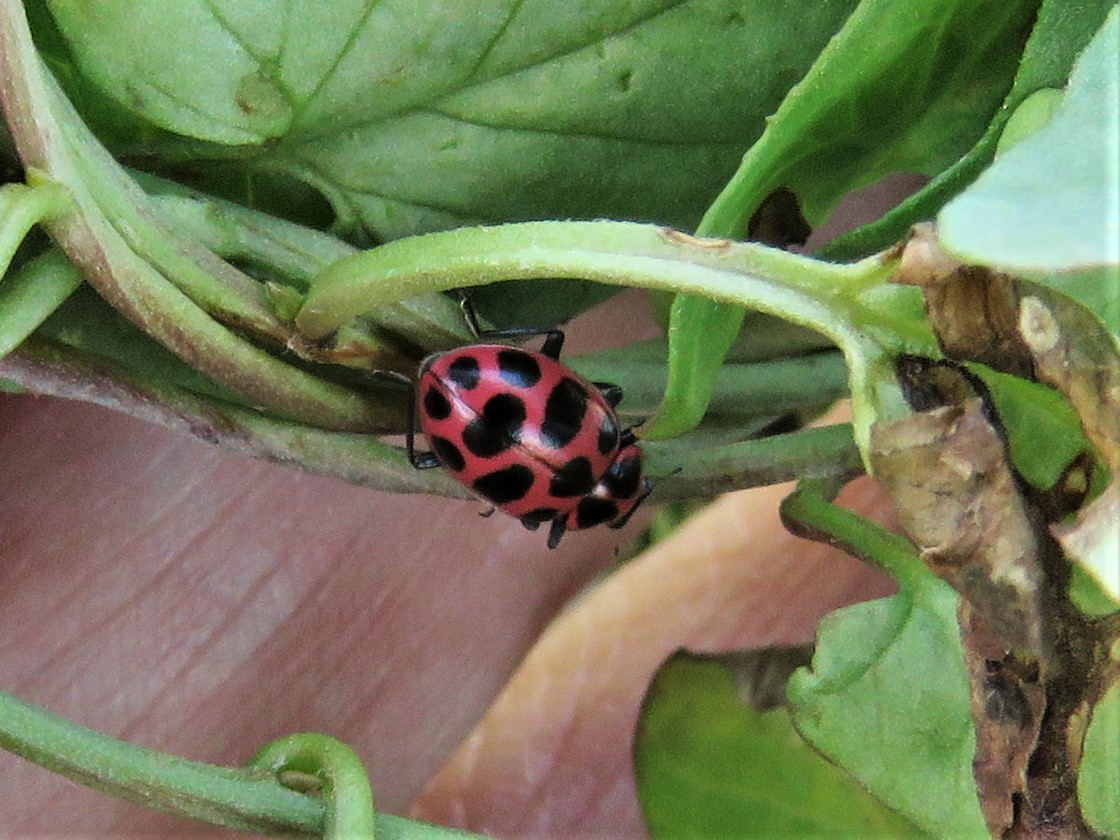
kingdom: Animalia
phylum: Arthropoda
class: Insecta
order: Coleoptera
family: Coccinellidae
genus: Coleomegilla
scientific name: Coleomegilla maculata
